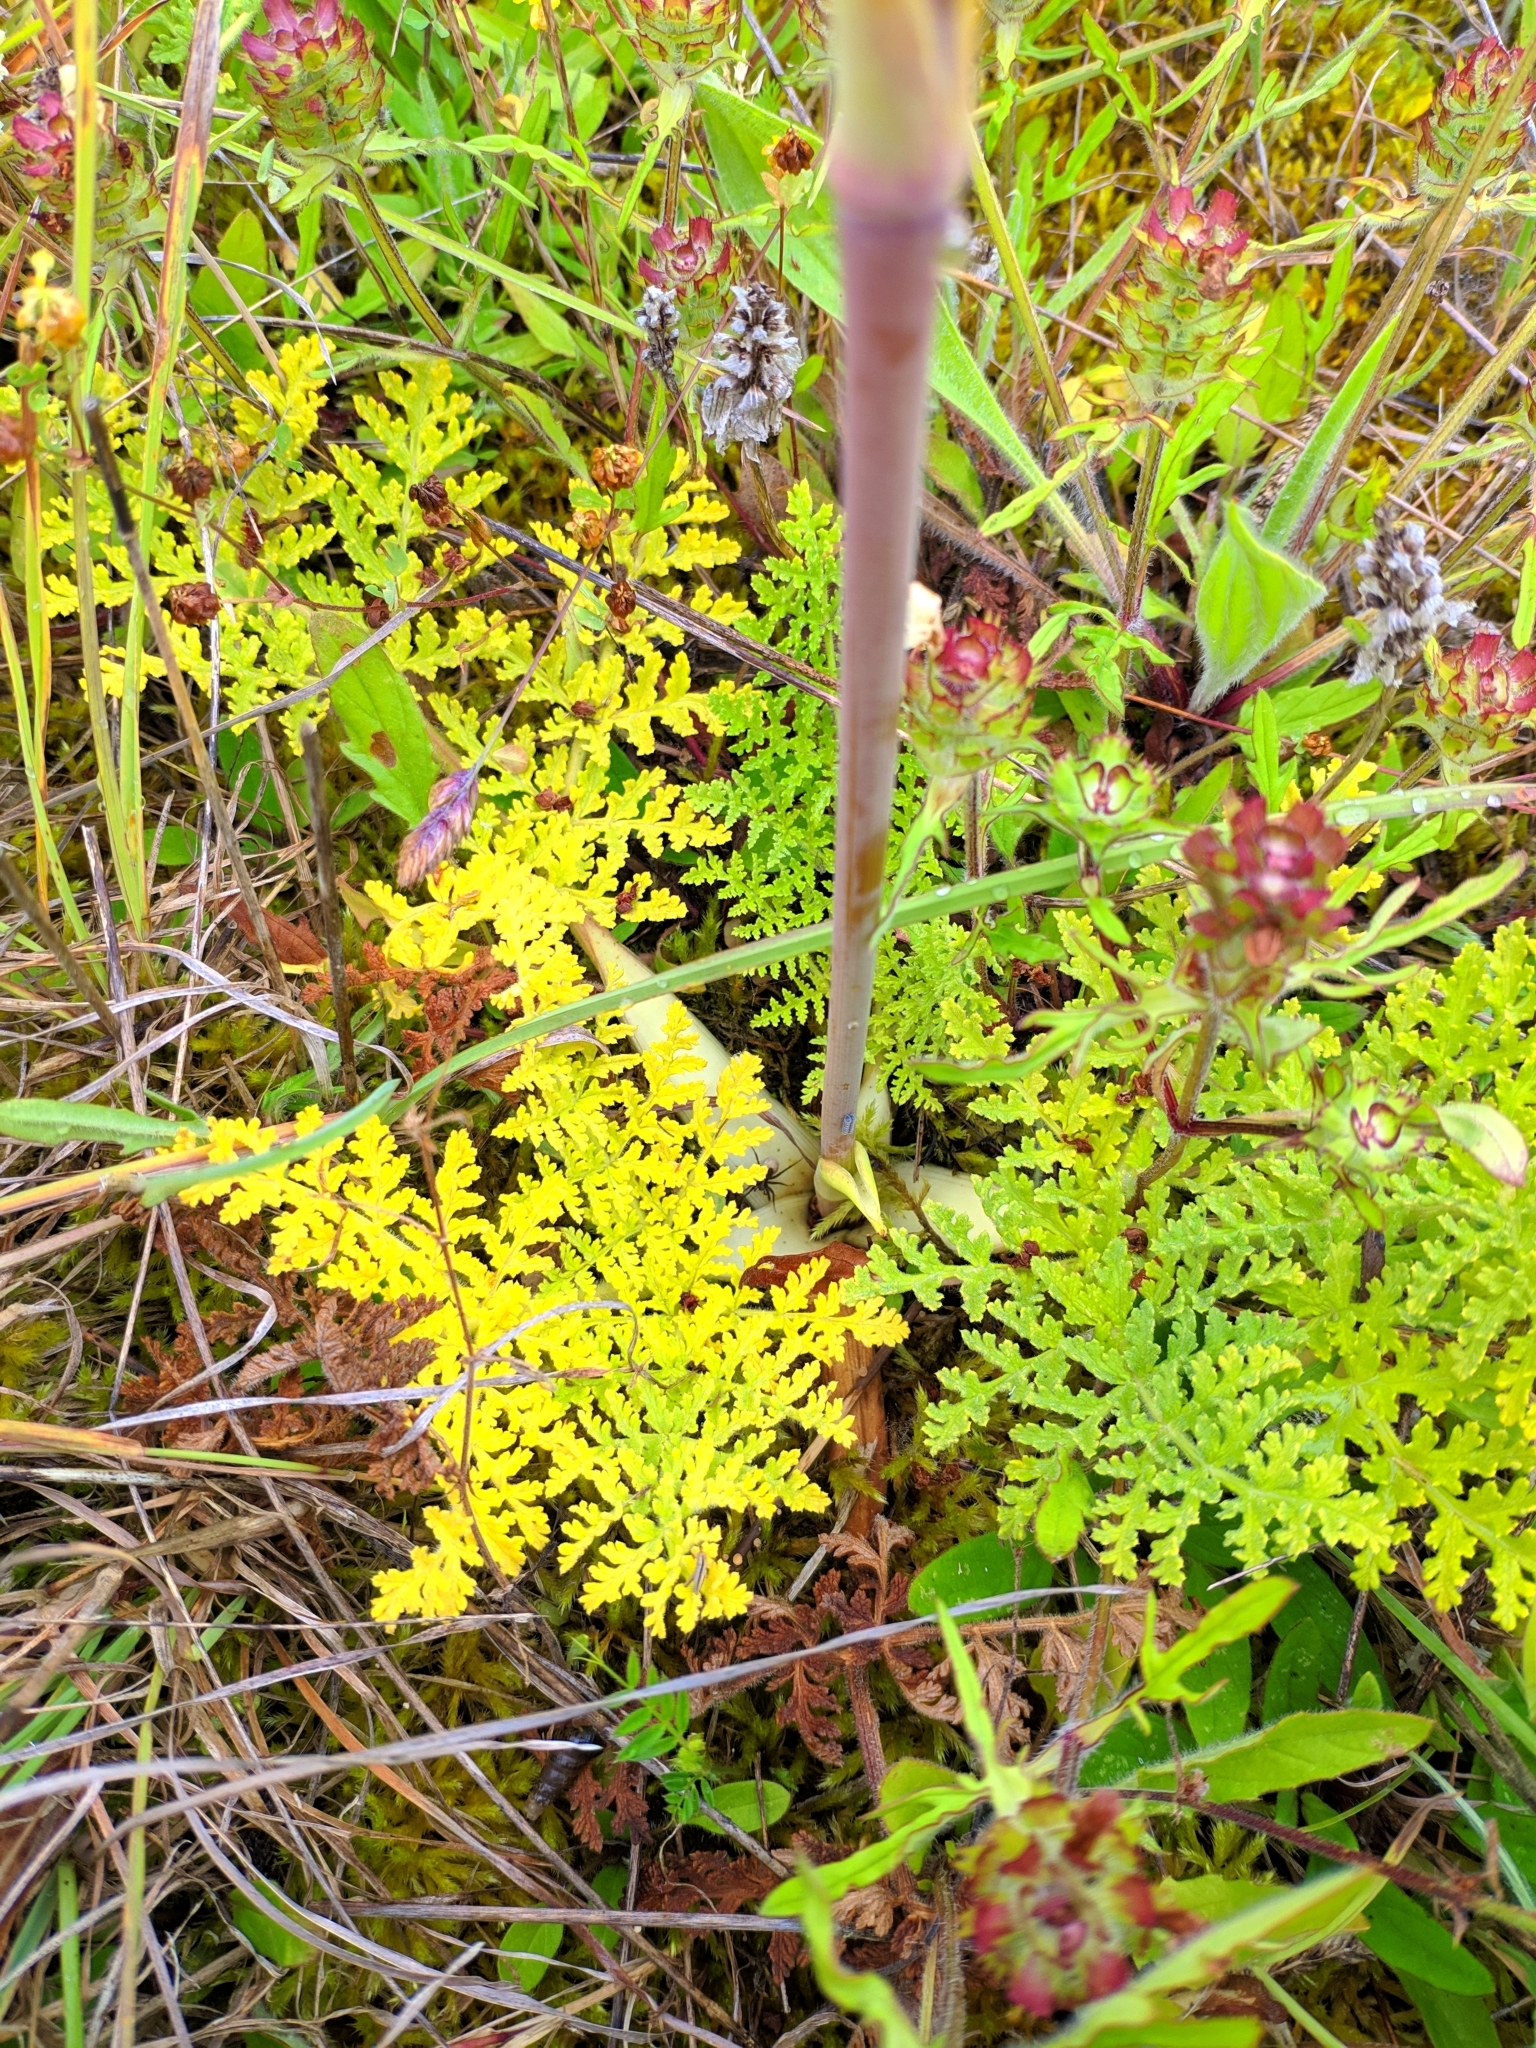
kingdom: Plantae
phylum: Tracheophyta
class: Magnoliopsida
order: Apiales
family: Apiaceae
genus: Thapsia
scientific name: Thapsia villosa
